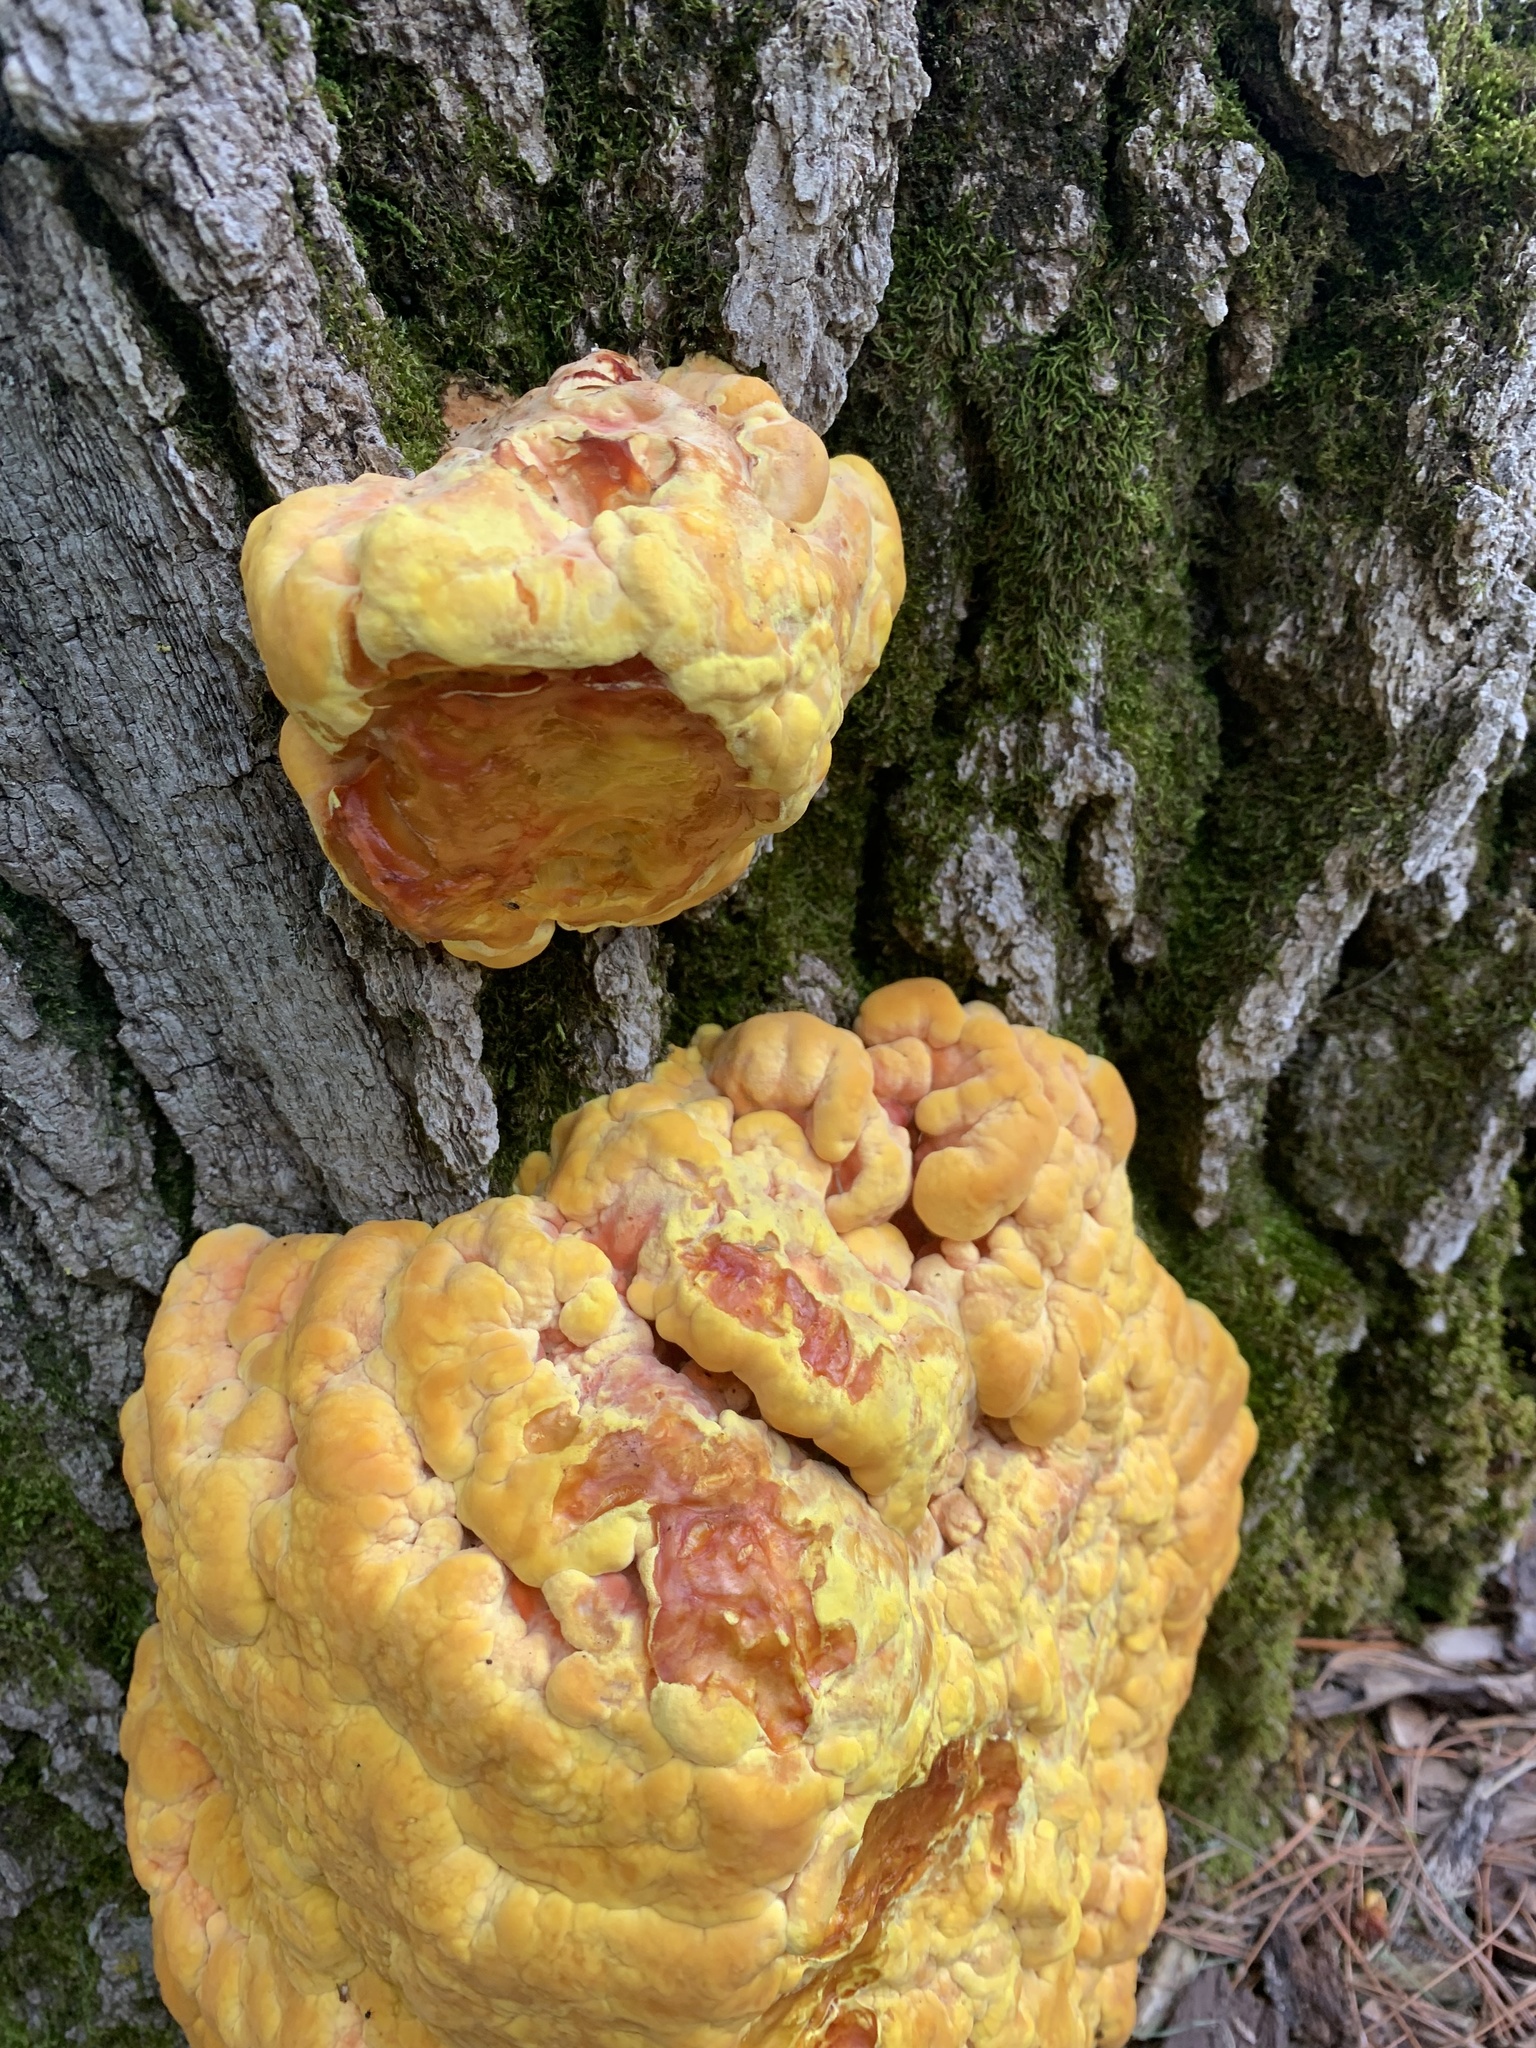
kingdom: Fungi
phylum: Basidiomycota
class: Agaricomycetes
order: Polyporales
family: Laetiporaceae
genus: Laetiporus
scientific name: Laetiporus sulphureus
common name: Chicken of the woods
